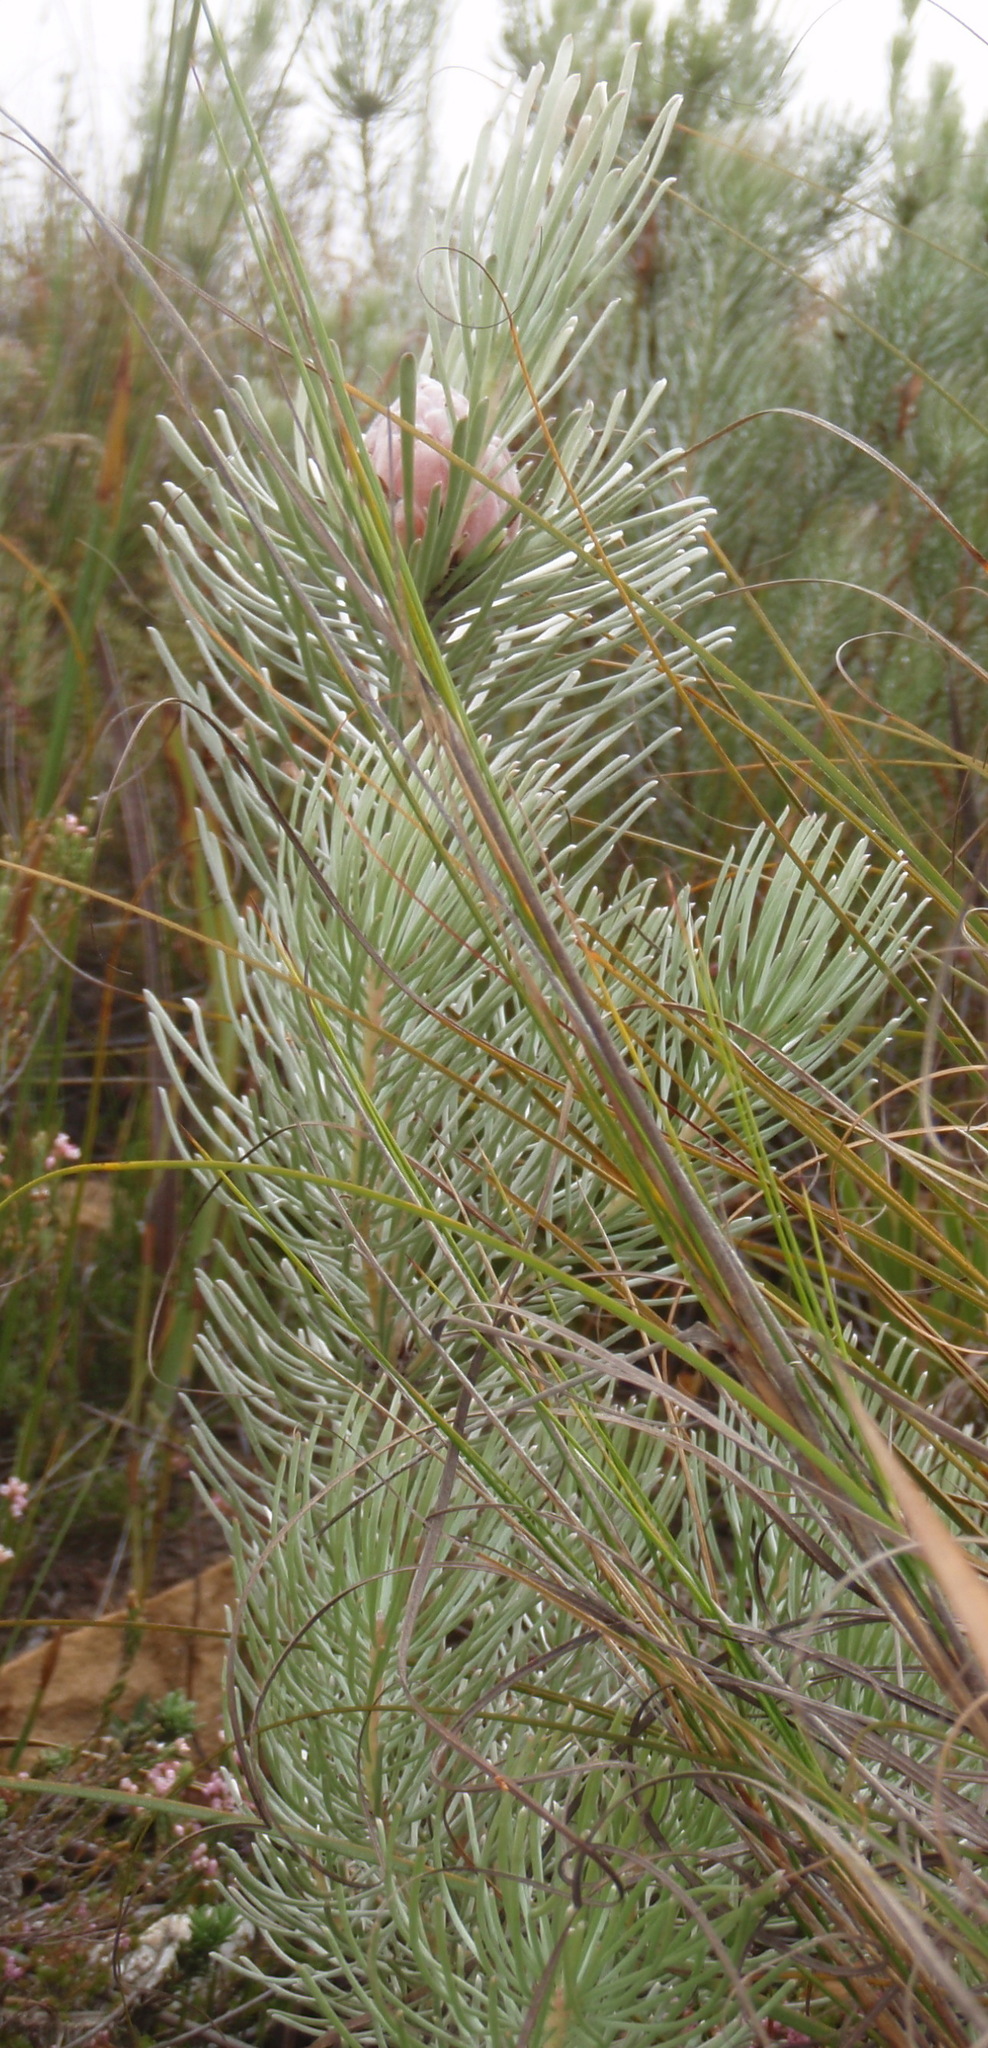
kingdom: Plantae
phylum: Tracheophyta
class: Magnoliopsida
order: Proteales
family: Proteaceae
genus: Leucadendron
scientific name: Leucadendron album
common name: Linear-leaf conebush
